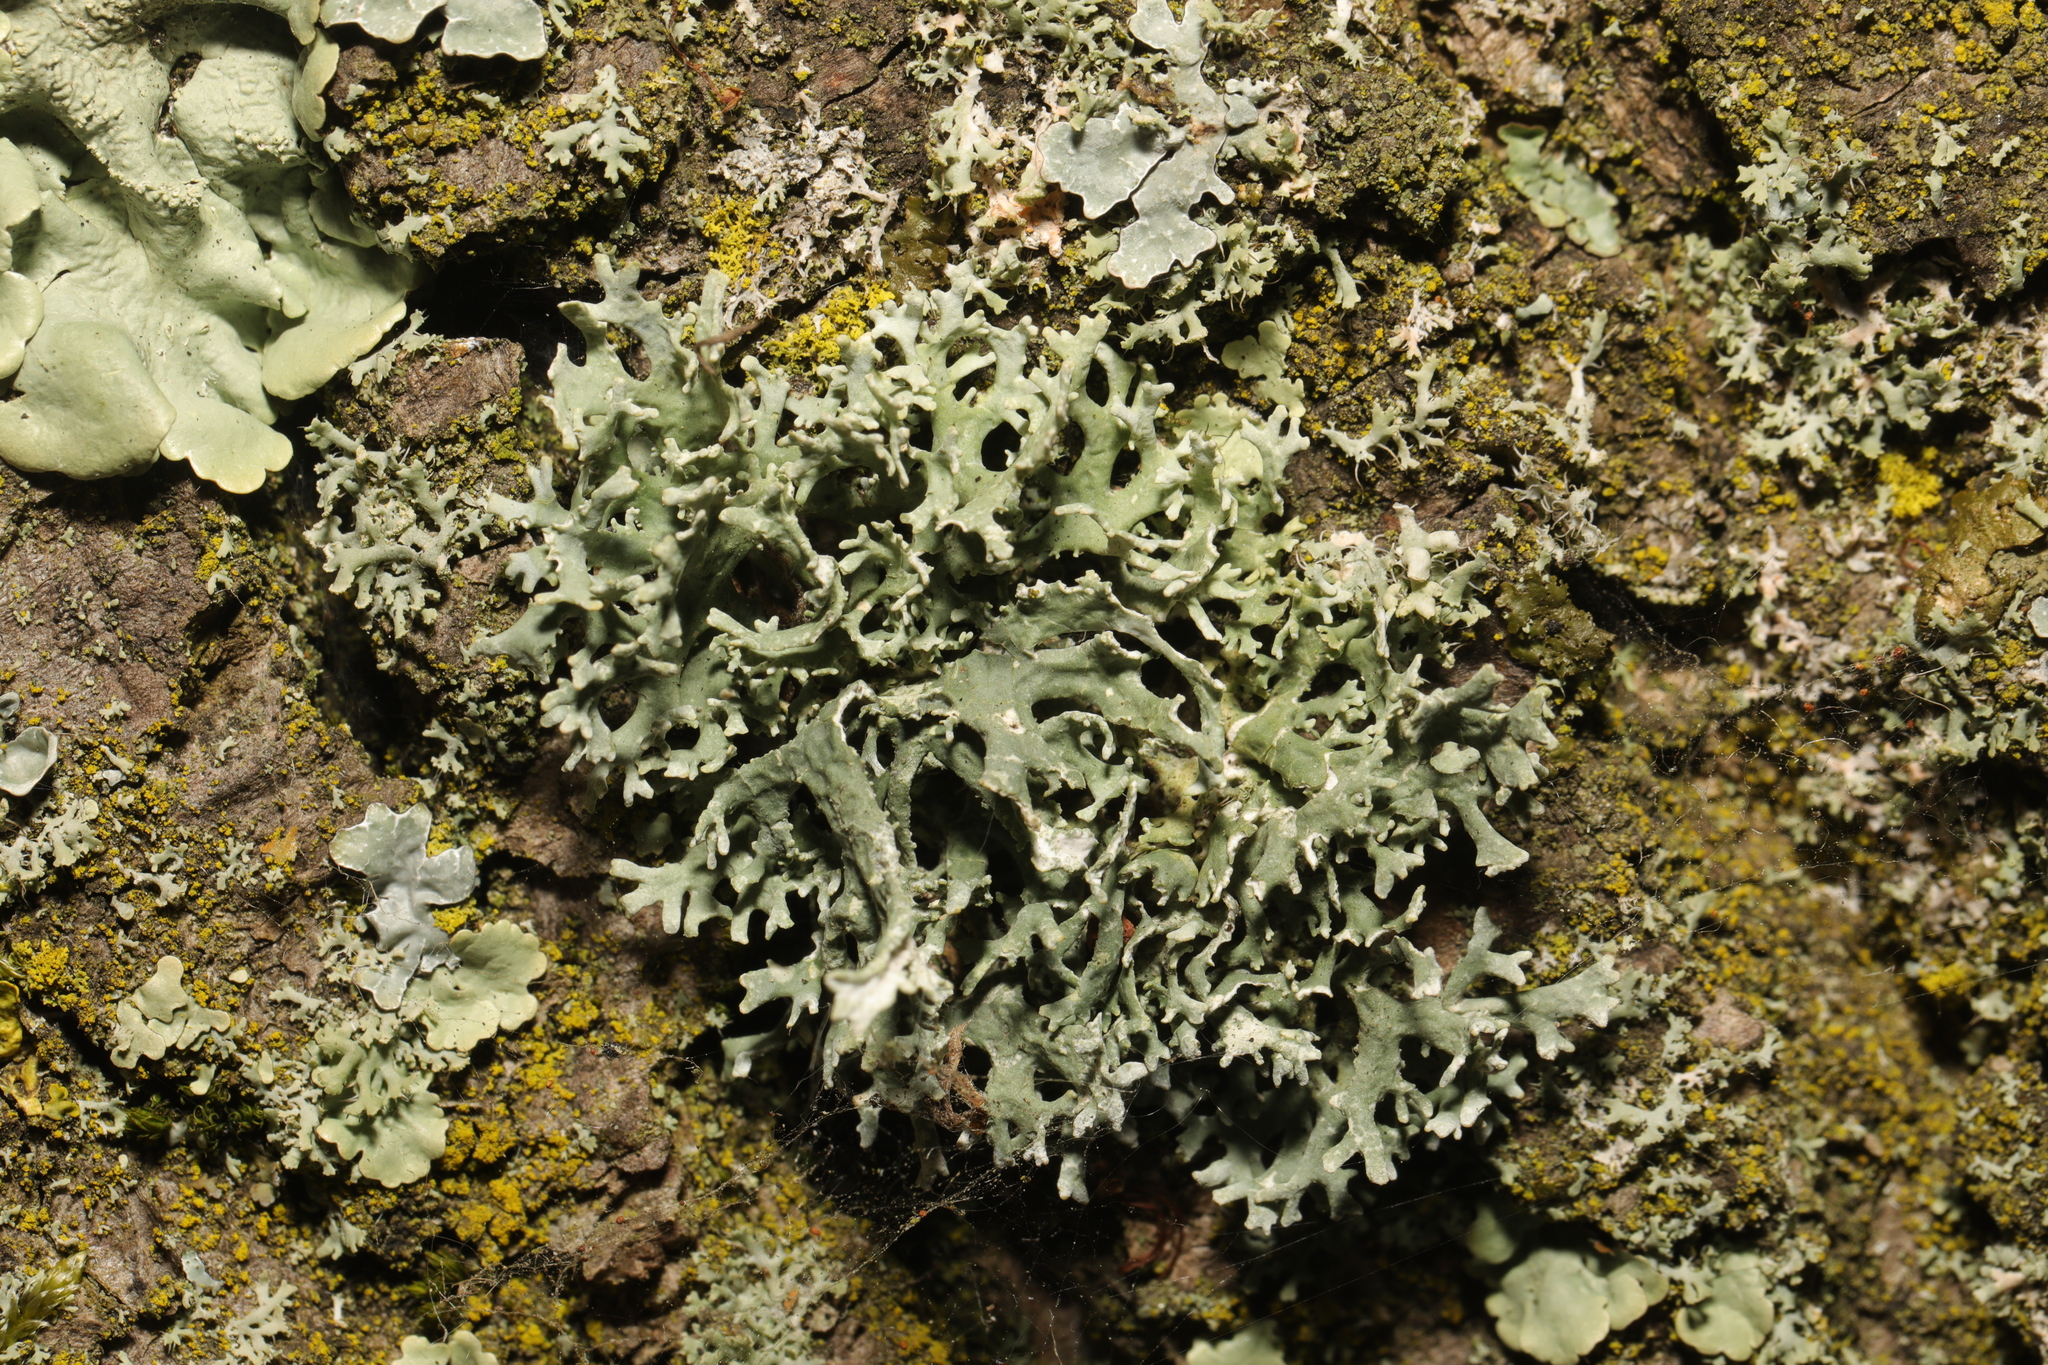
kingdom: Fungi
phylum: Ascomycota
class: Lecanoromycetes
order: Lecanorales
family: Parmeliaceae
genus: Evernia
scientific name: Evernia prunastri
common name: Oak moss
